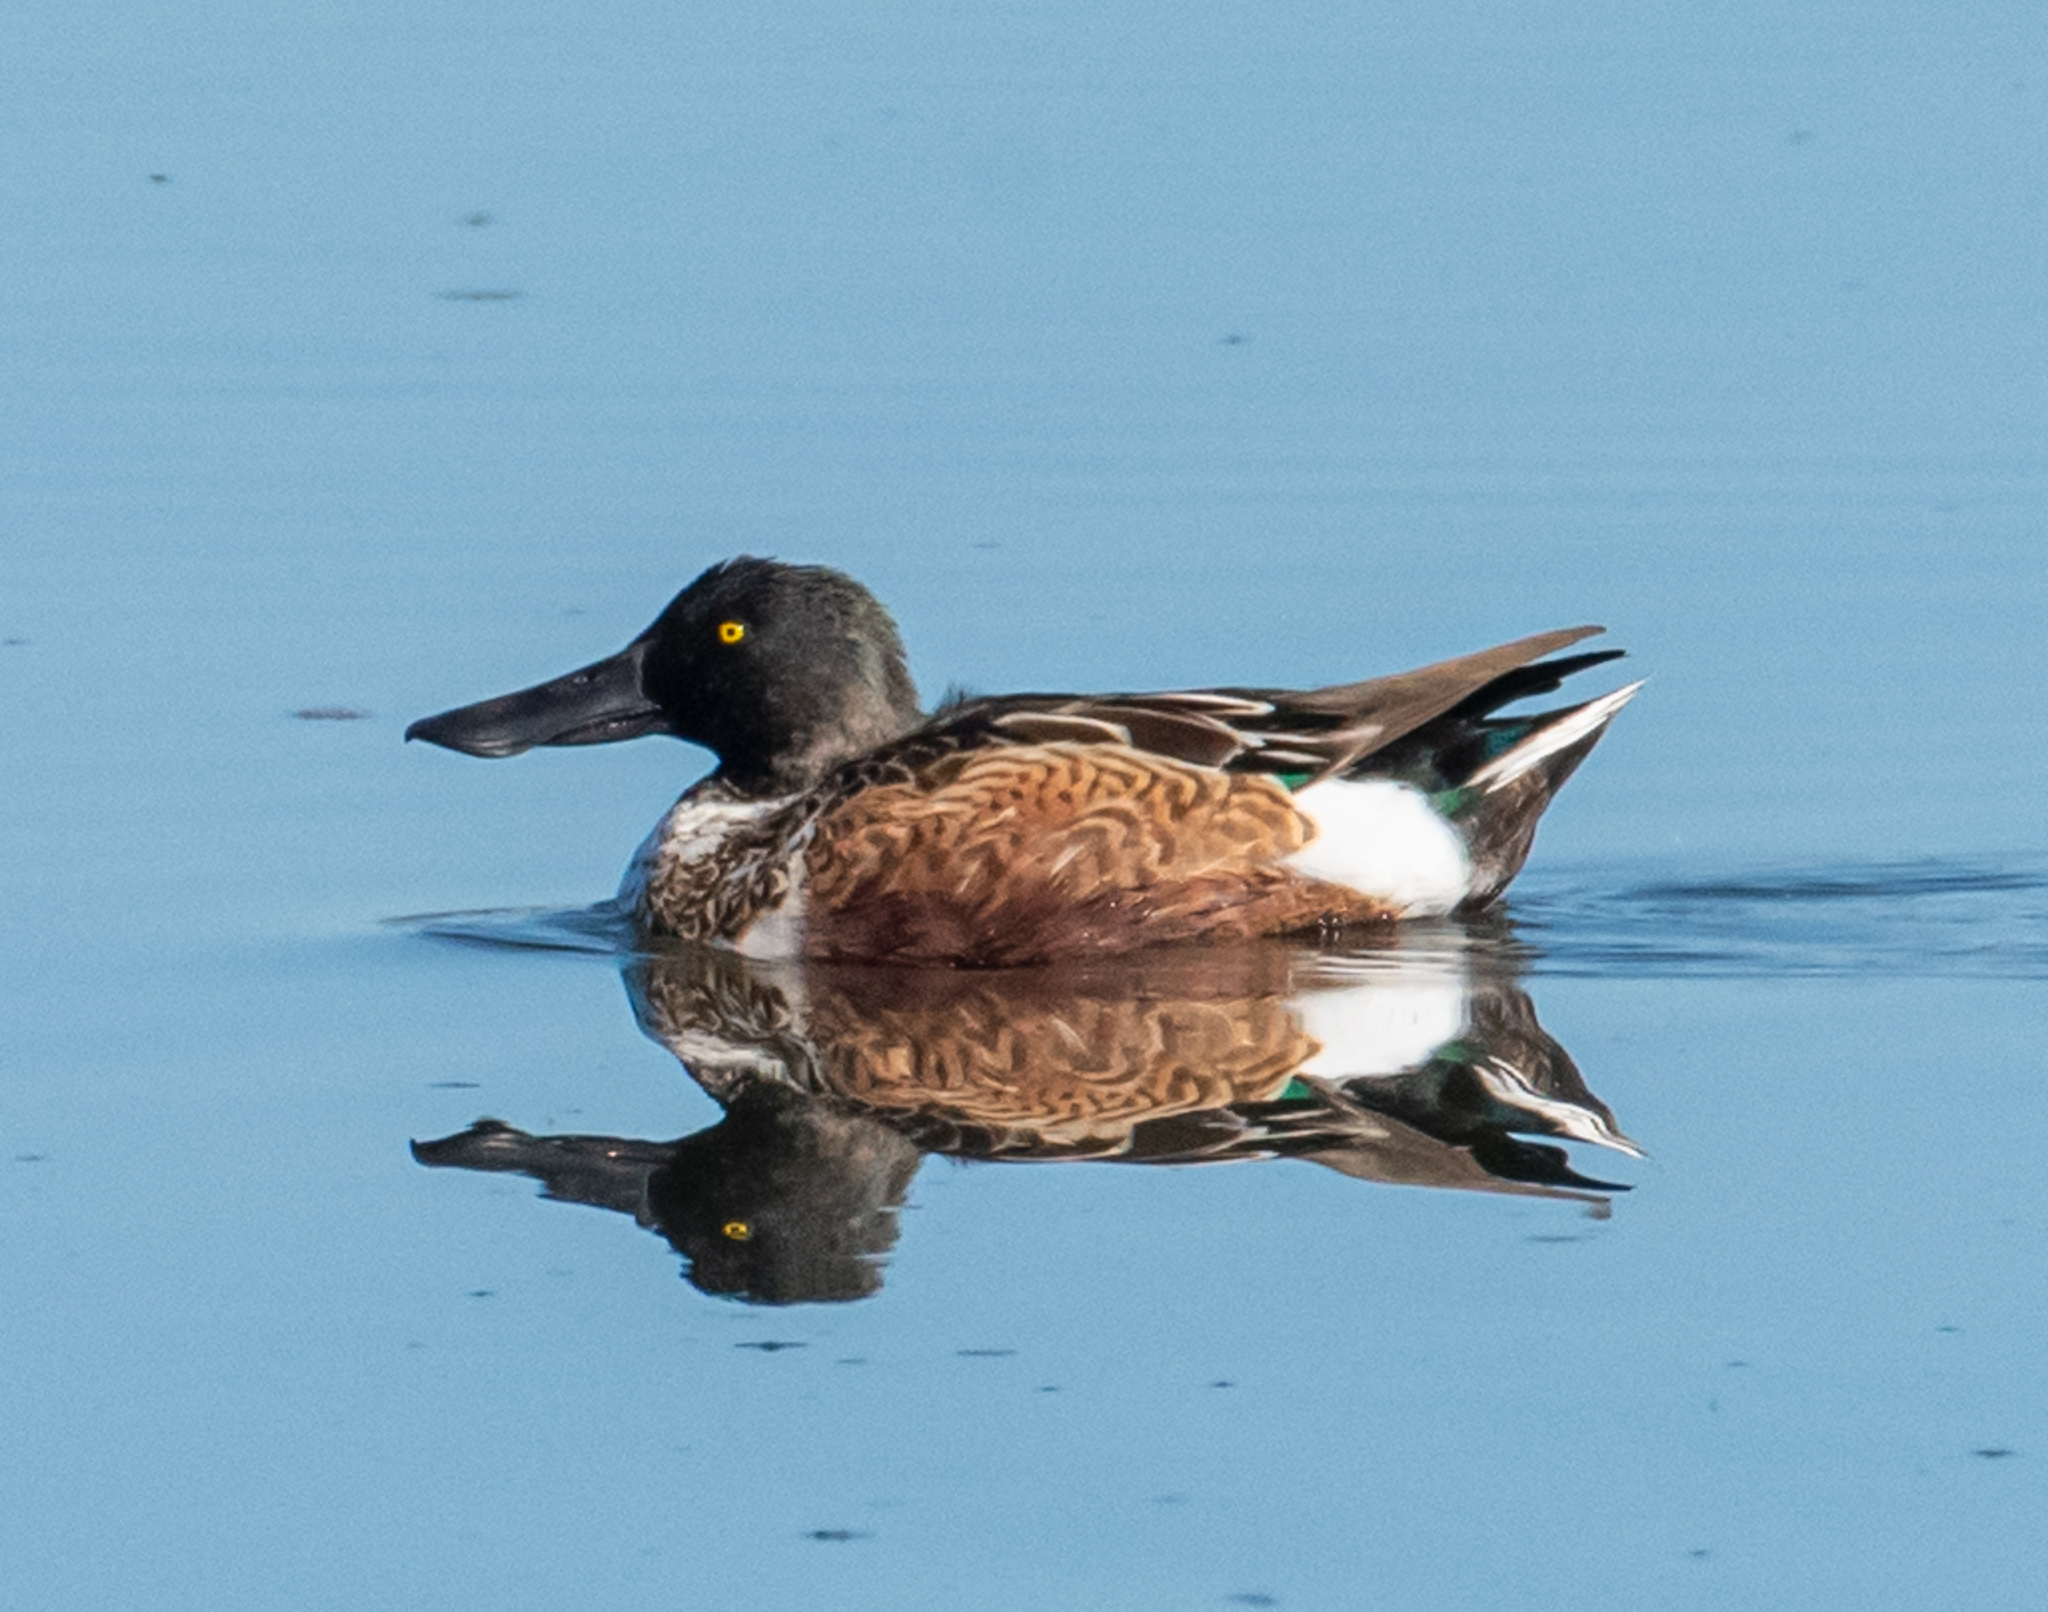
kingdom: Animalia
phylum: Chordata
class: Aves
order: Anseriformes
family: Anatidae
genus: Spatula
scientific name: Spatula clypeata
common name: Northern shoveler
